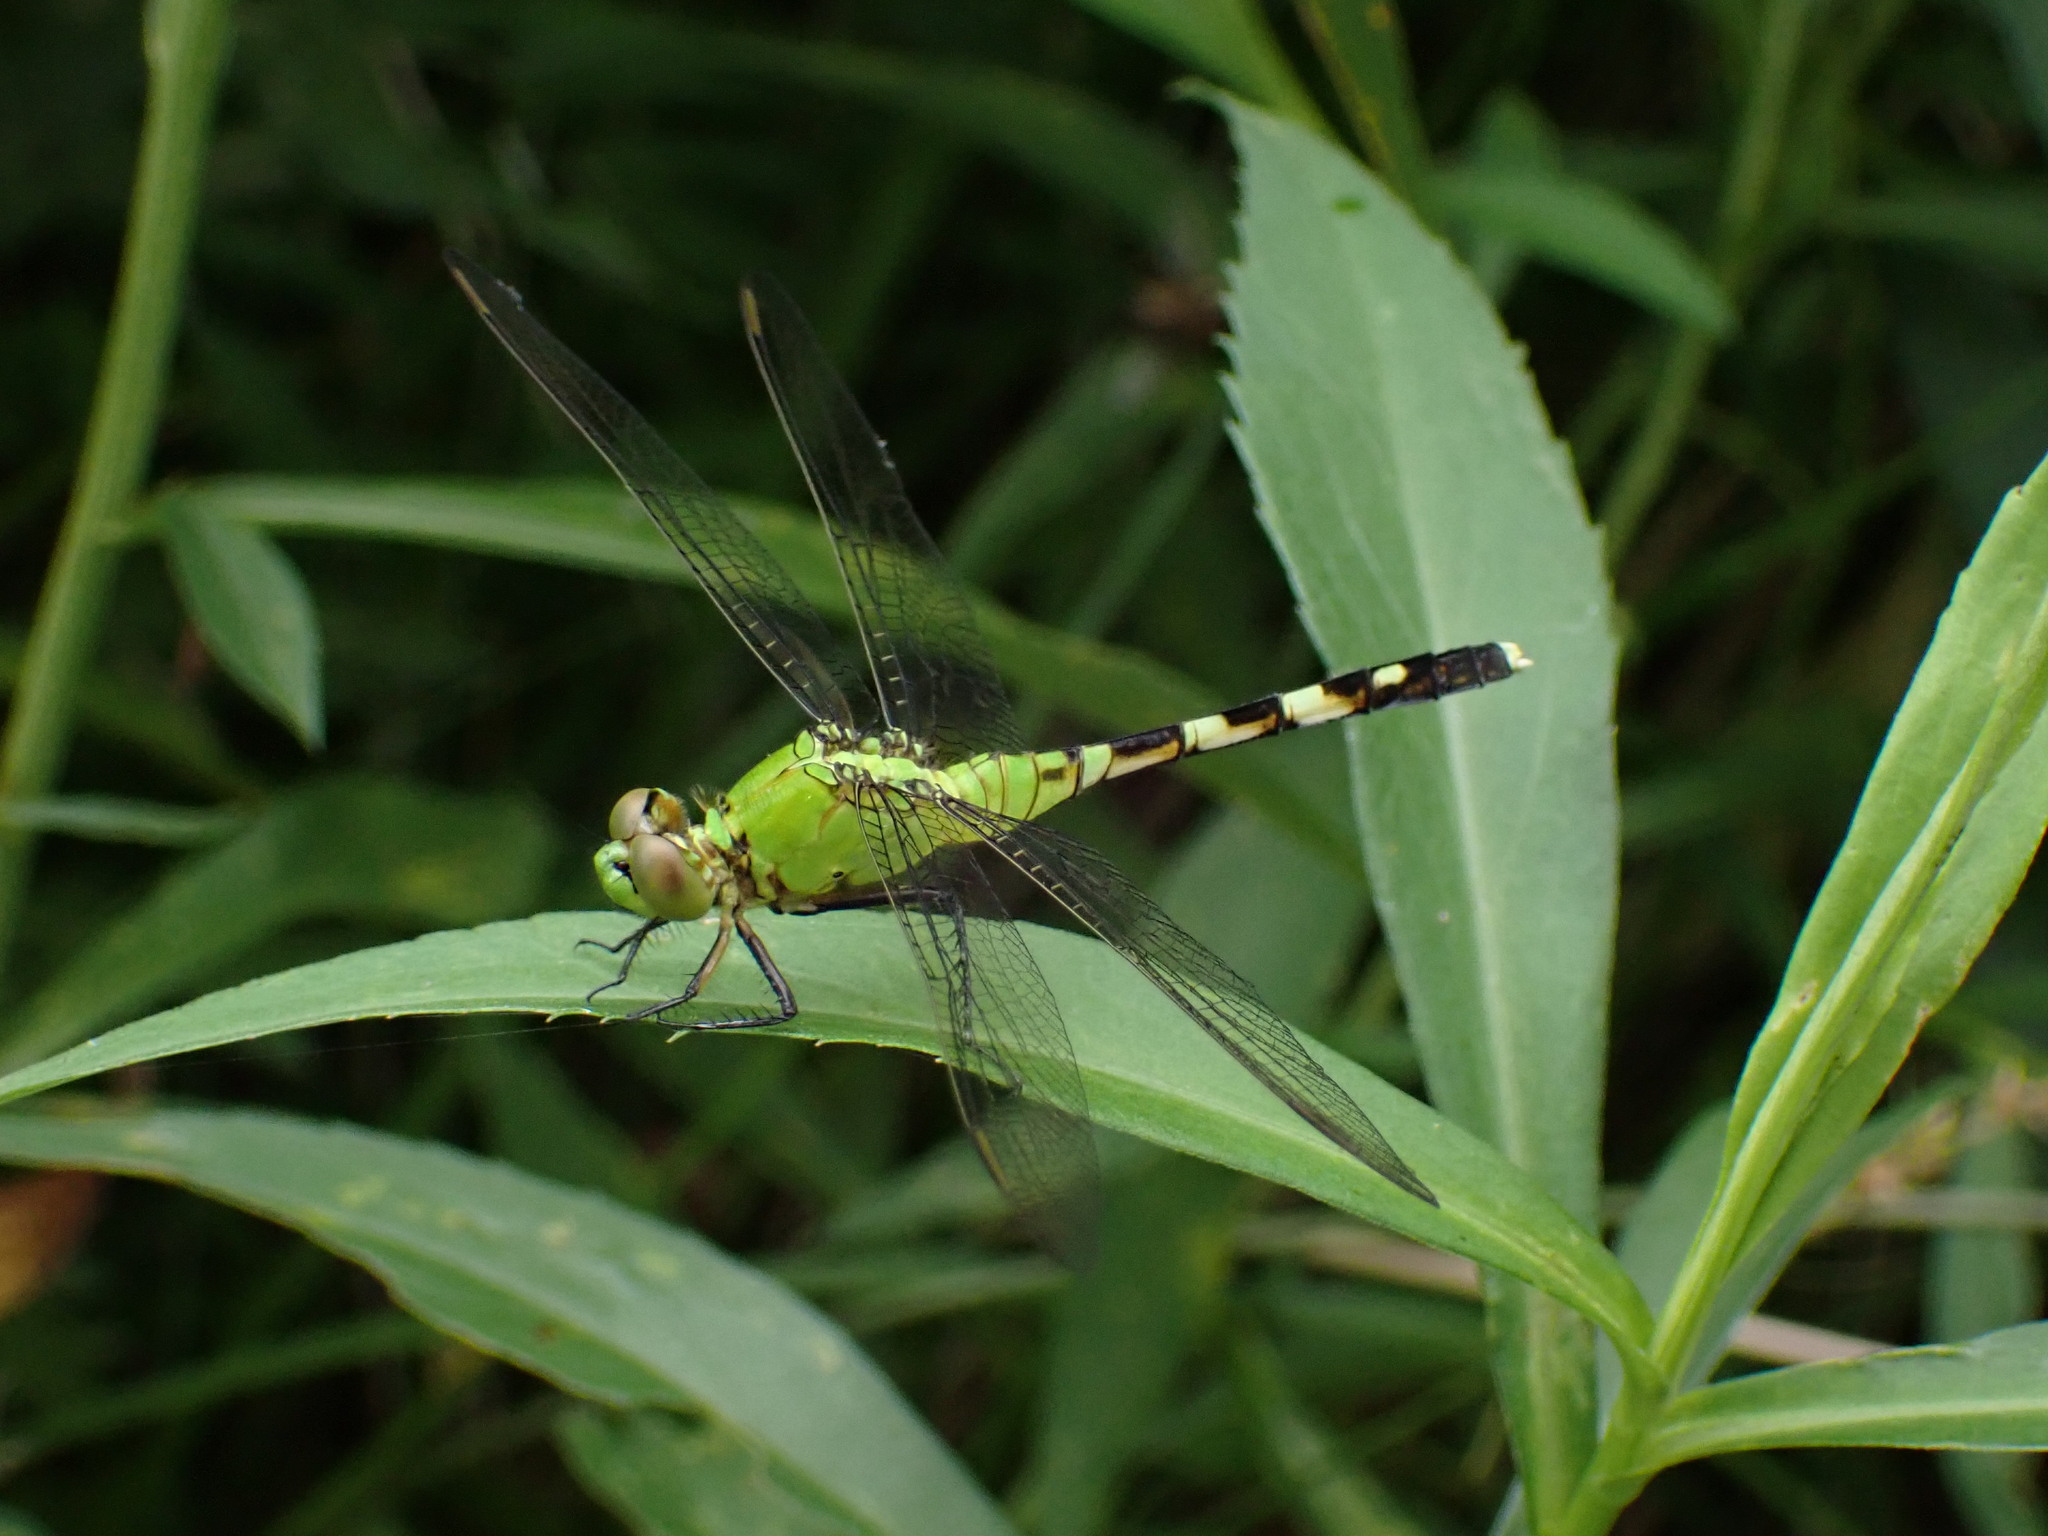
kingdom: Animalia
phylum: Arthropoda
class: Insecta
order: Odonata
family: Libellulidae
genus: Erythemis
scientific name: Erythemis simplicicollis
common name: Eastern pondhawk
